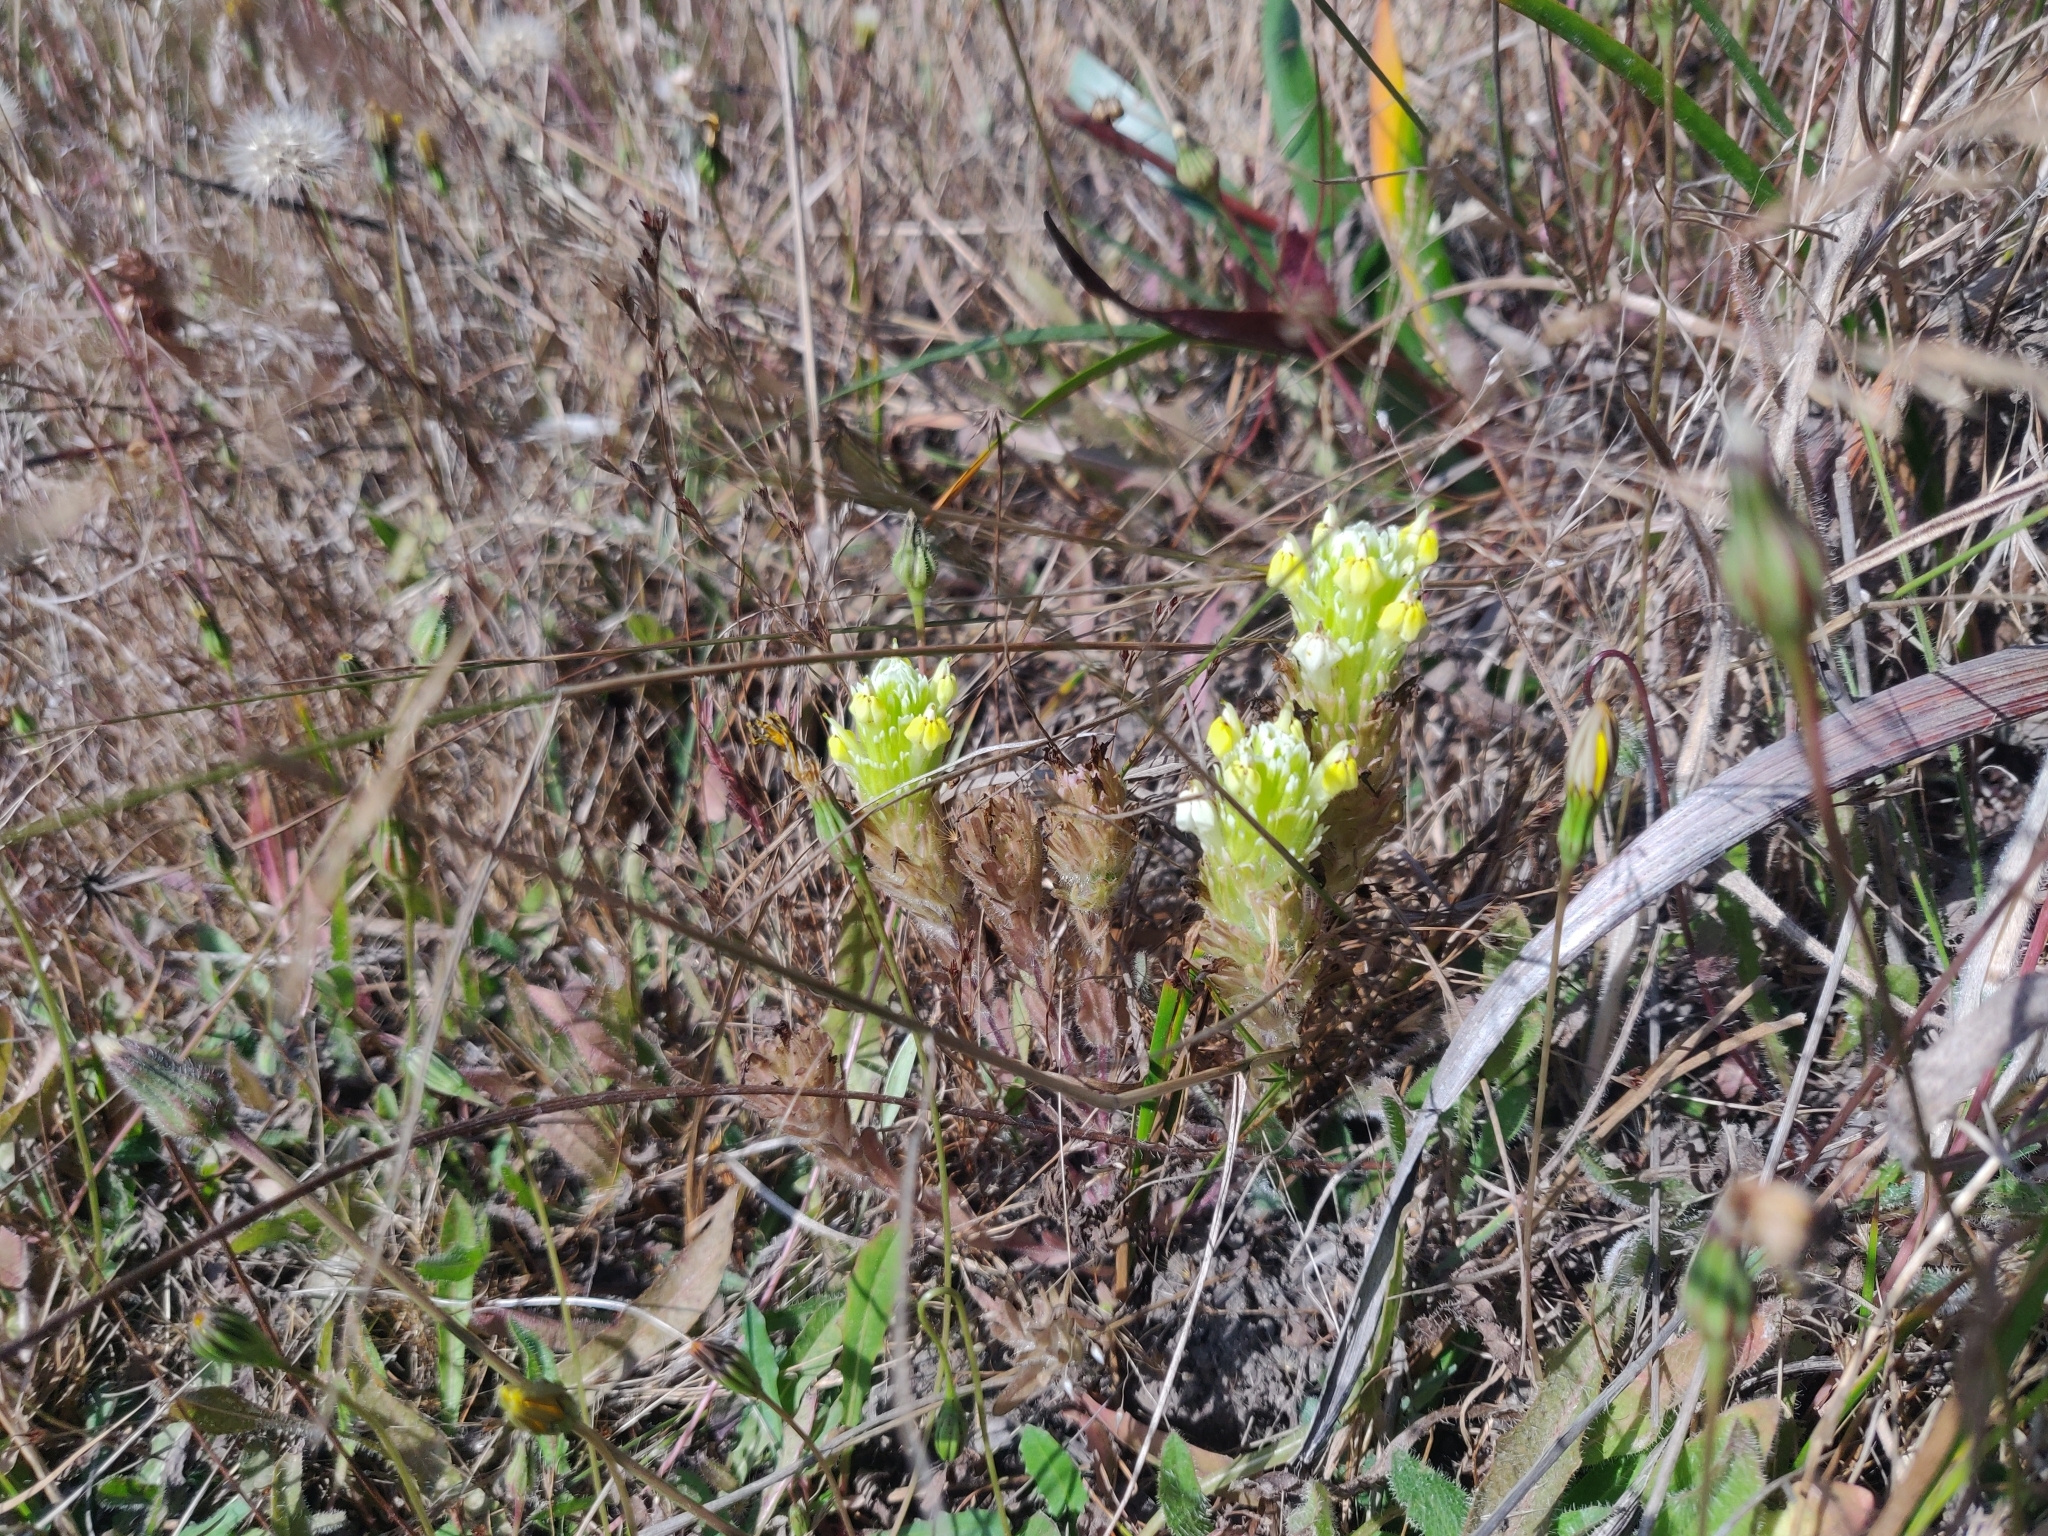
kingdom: Plantae
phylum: Tracheophyta
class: Magnoliopsida
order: Lamiales
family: Orobanchaceae
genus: Castilleja
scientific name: Castilleja ambigua
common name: Johnny-nip
